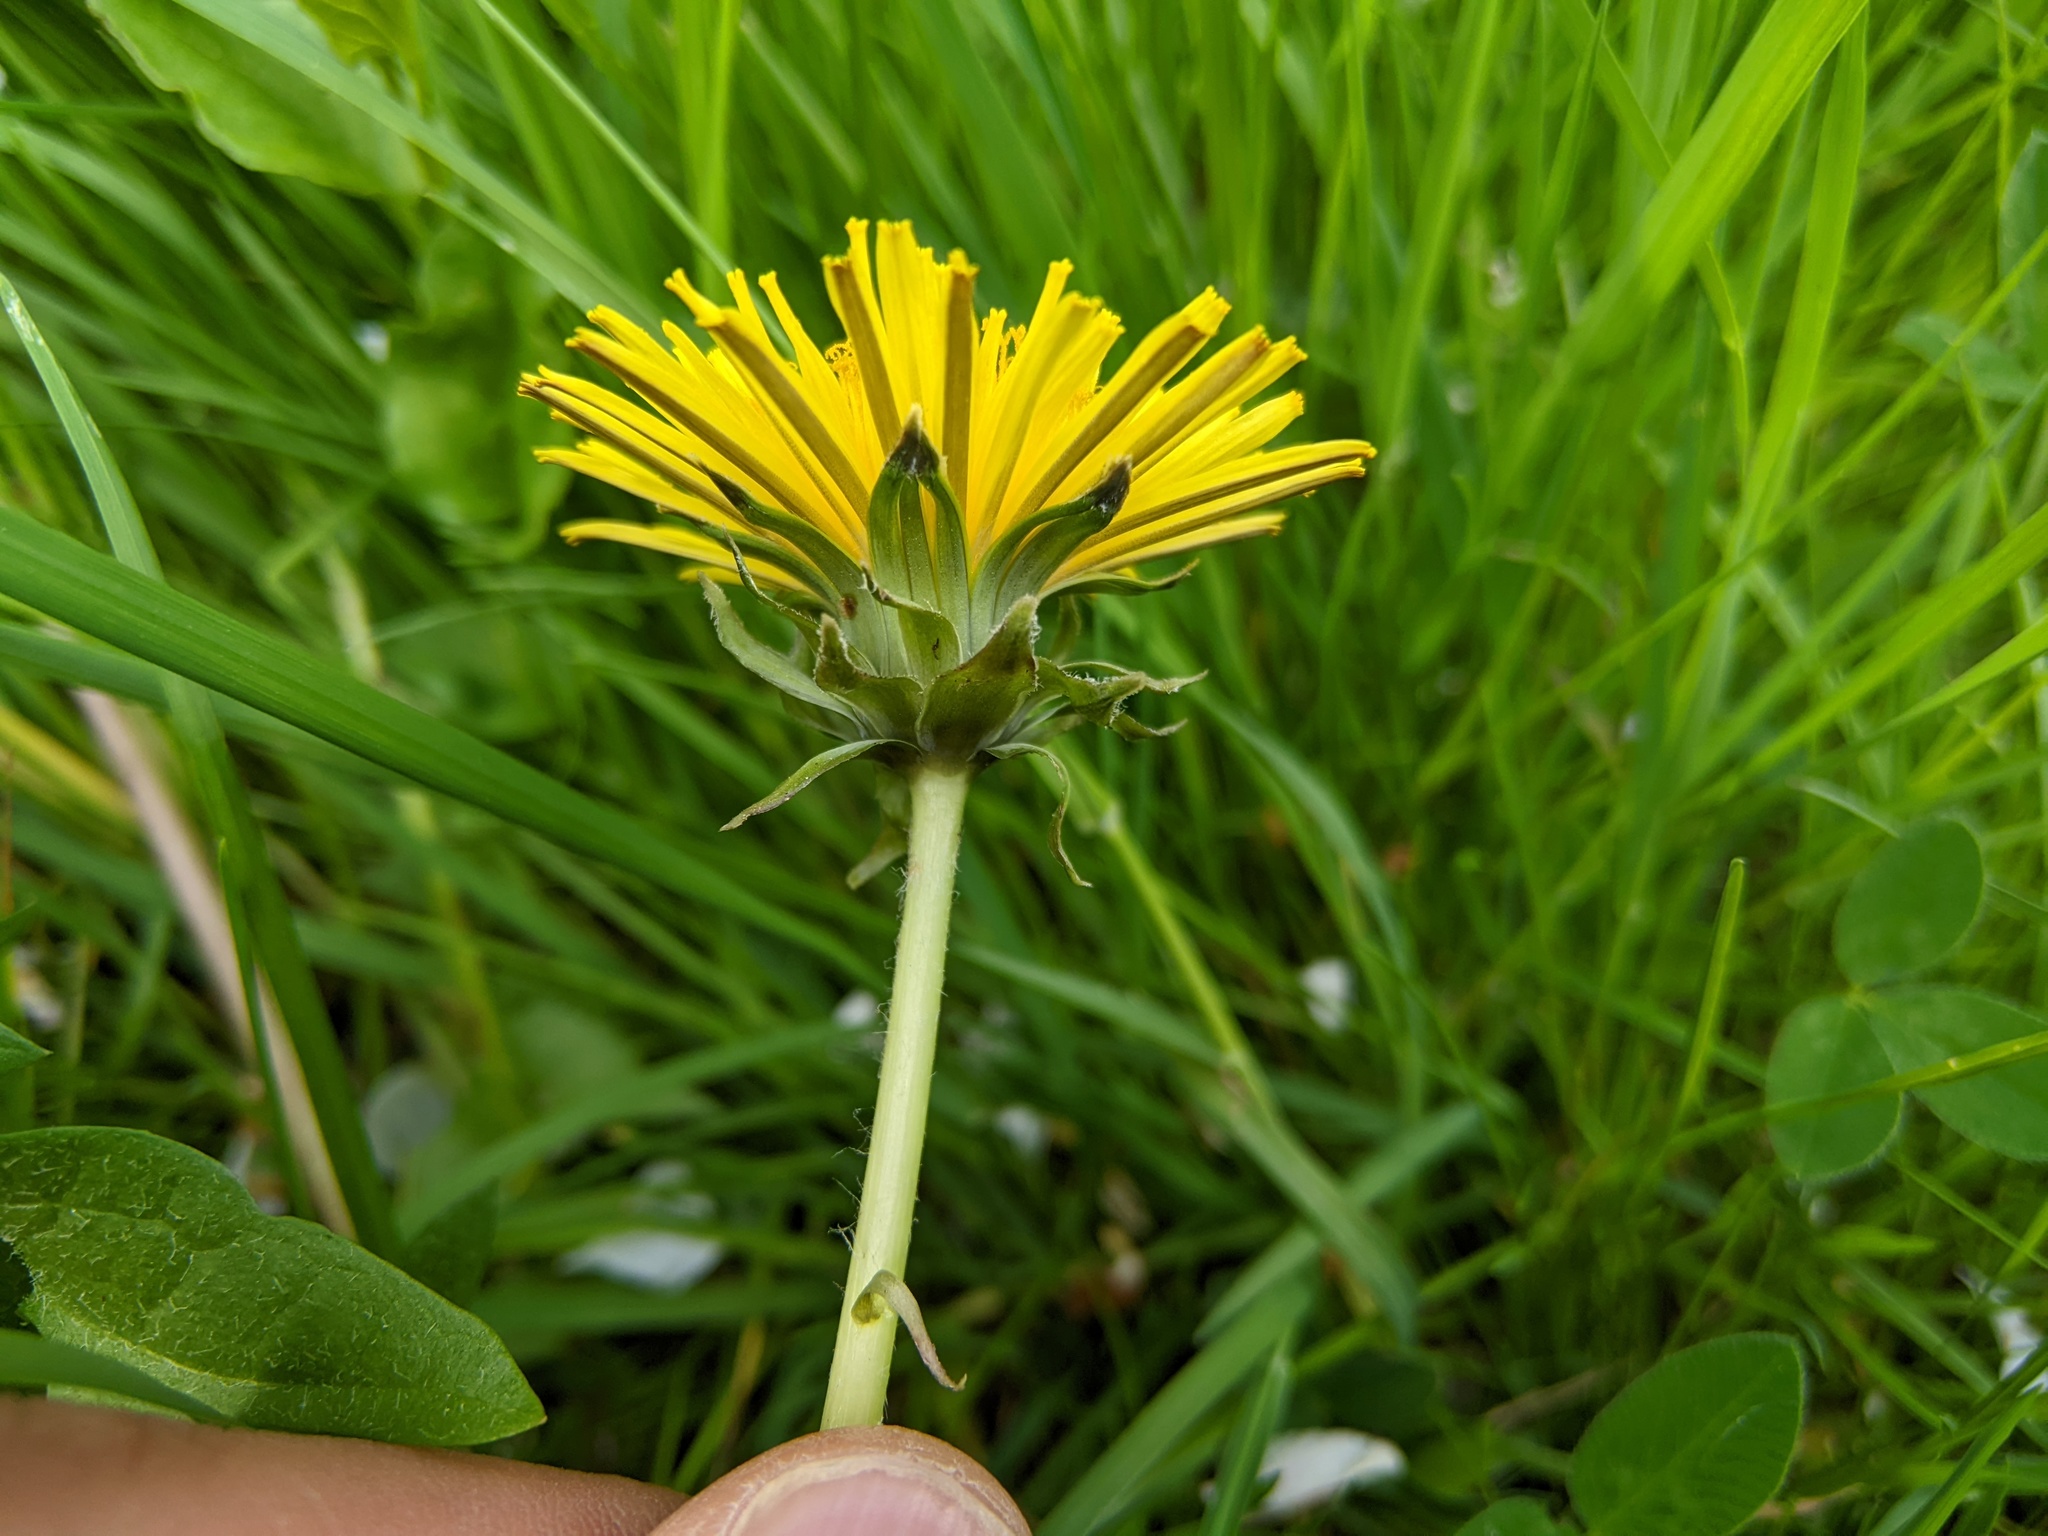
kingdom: Plantae
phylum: Tracheophyta
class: Magnoliopsida
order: Asterales
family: Asteraceae
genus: Taraxacum
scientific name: Taraxacum
